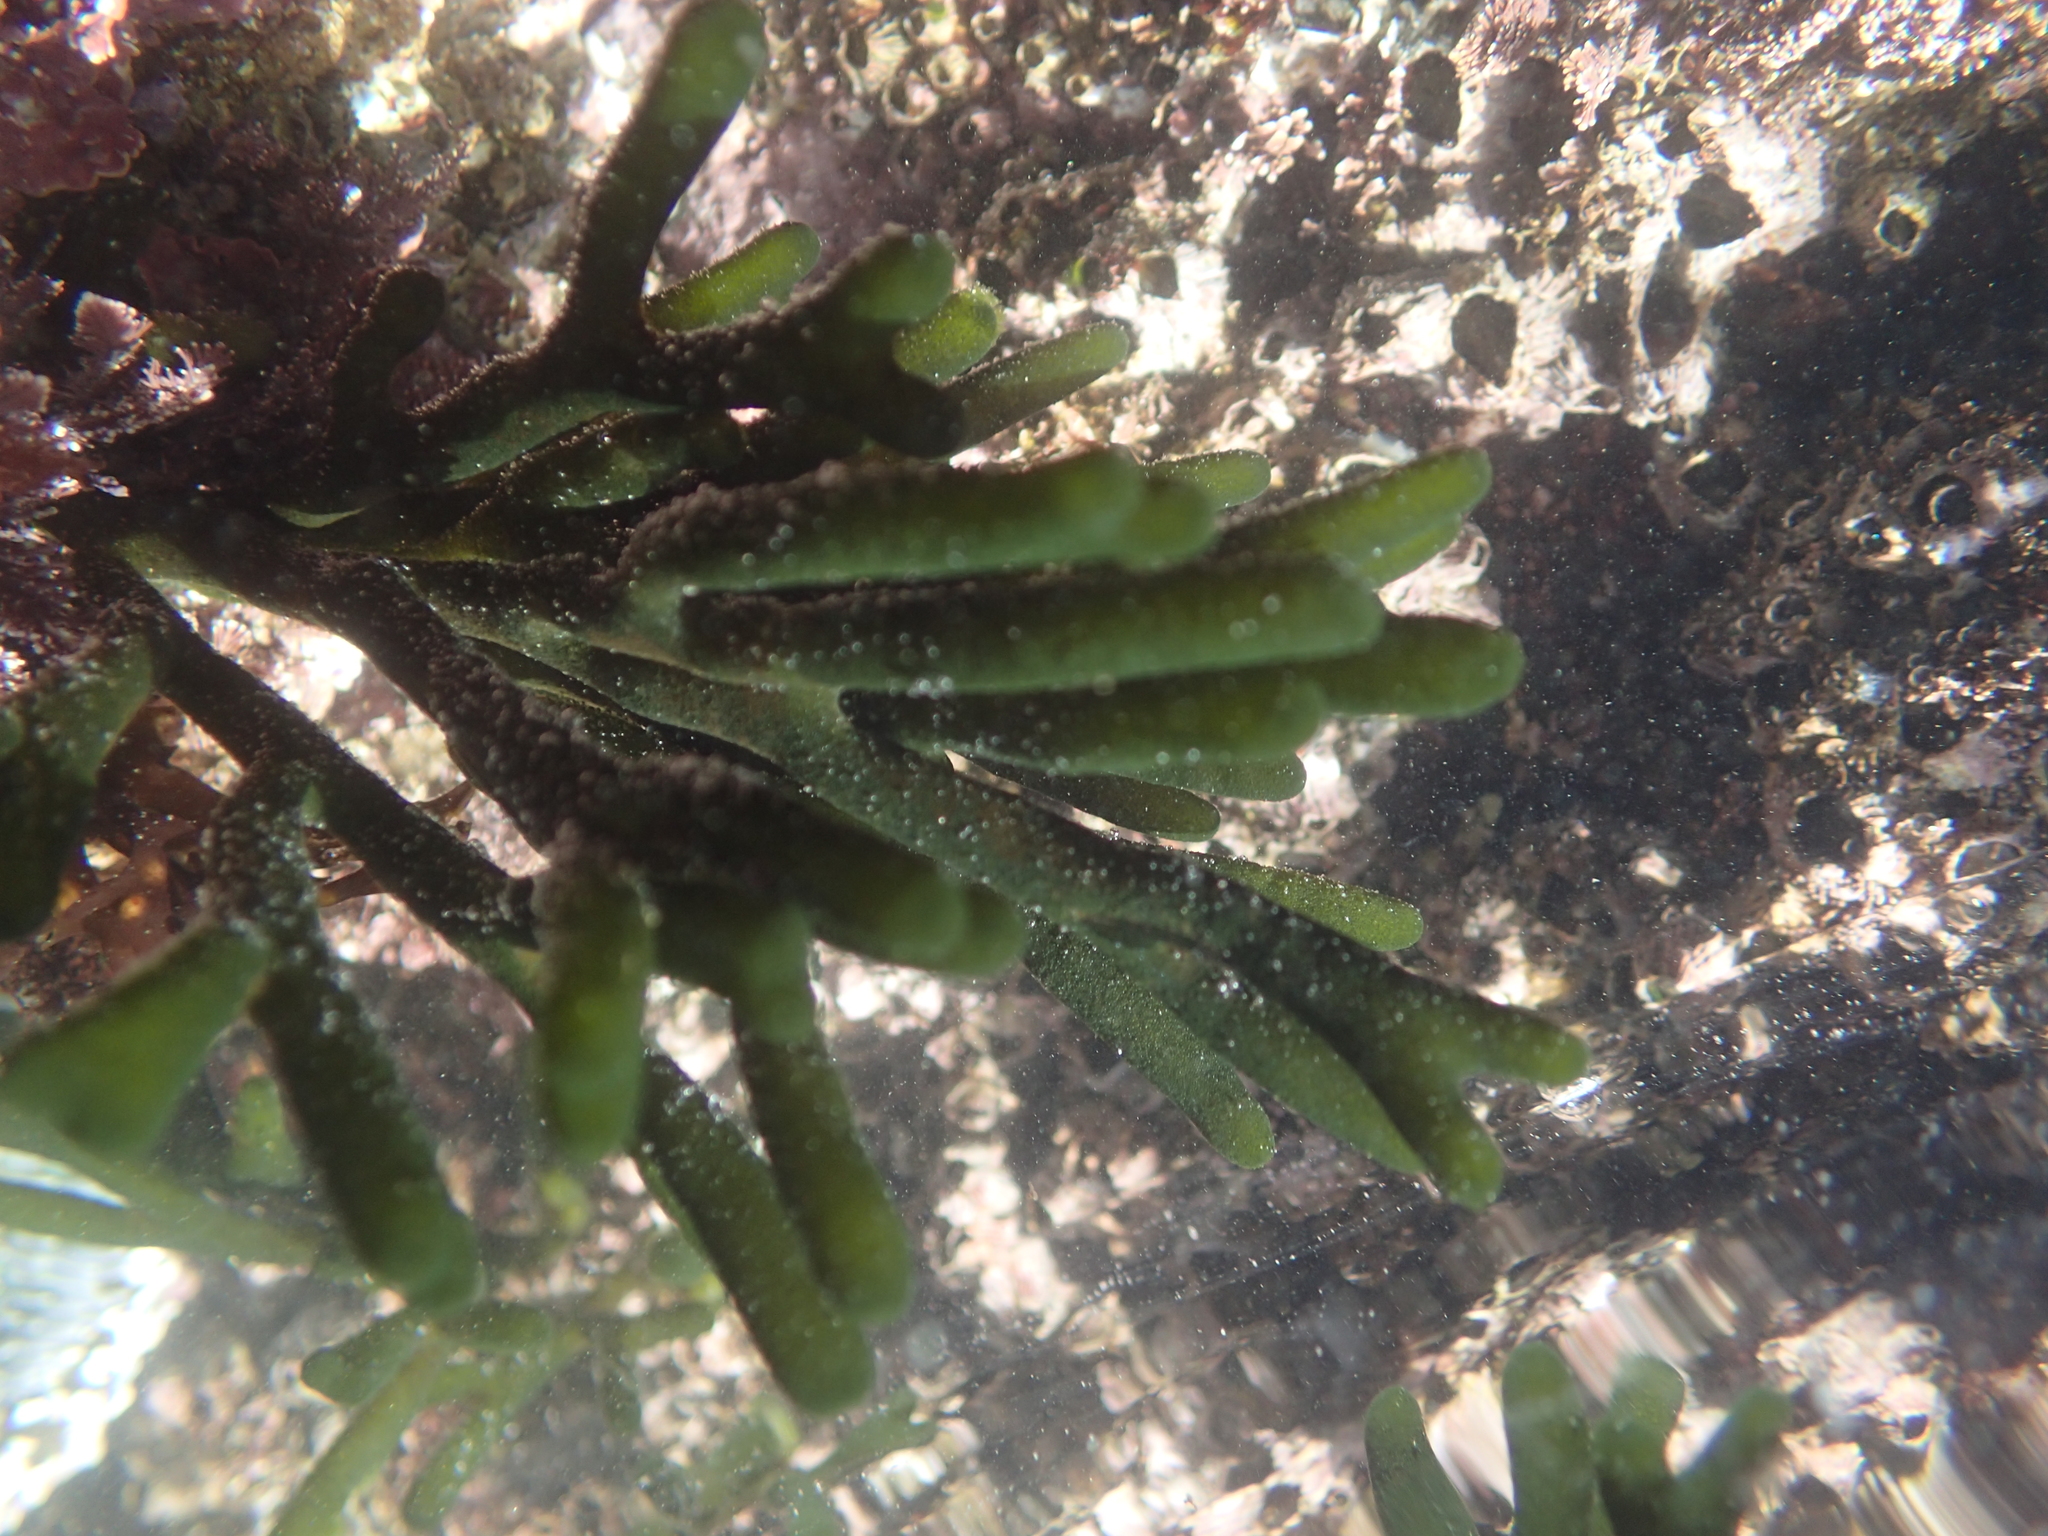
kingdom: Plantae
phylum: Chlorophyta
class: Ulvophyceae
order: Bryopsidales
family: Codiaceae
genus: Codium
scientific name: Codium fragile
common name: Dead man's fingers
